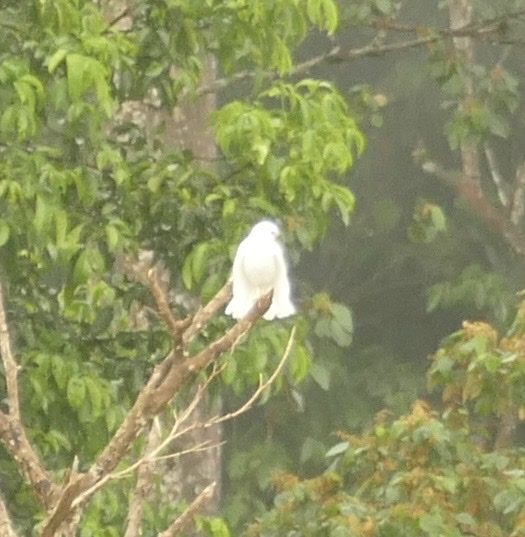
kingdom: Animalia
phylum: Chordata
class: Aves
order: Accipitriformes
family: Accipitridae
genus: Accipiter
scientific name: Accipiter hiogaster
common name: Variable goshawk
